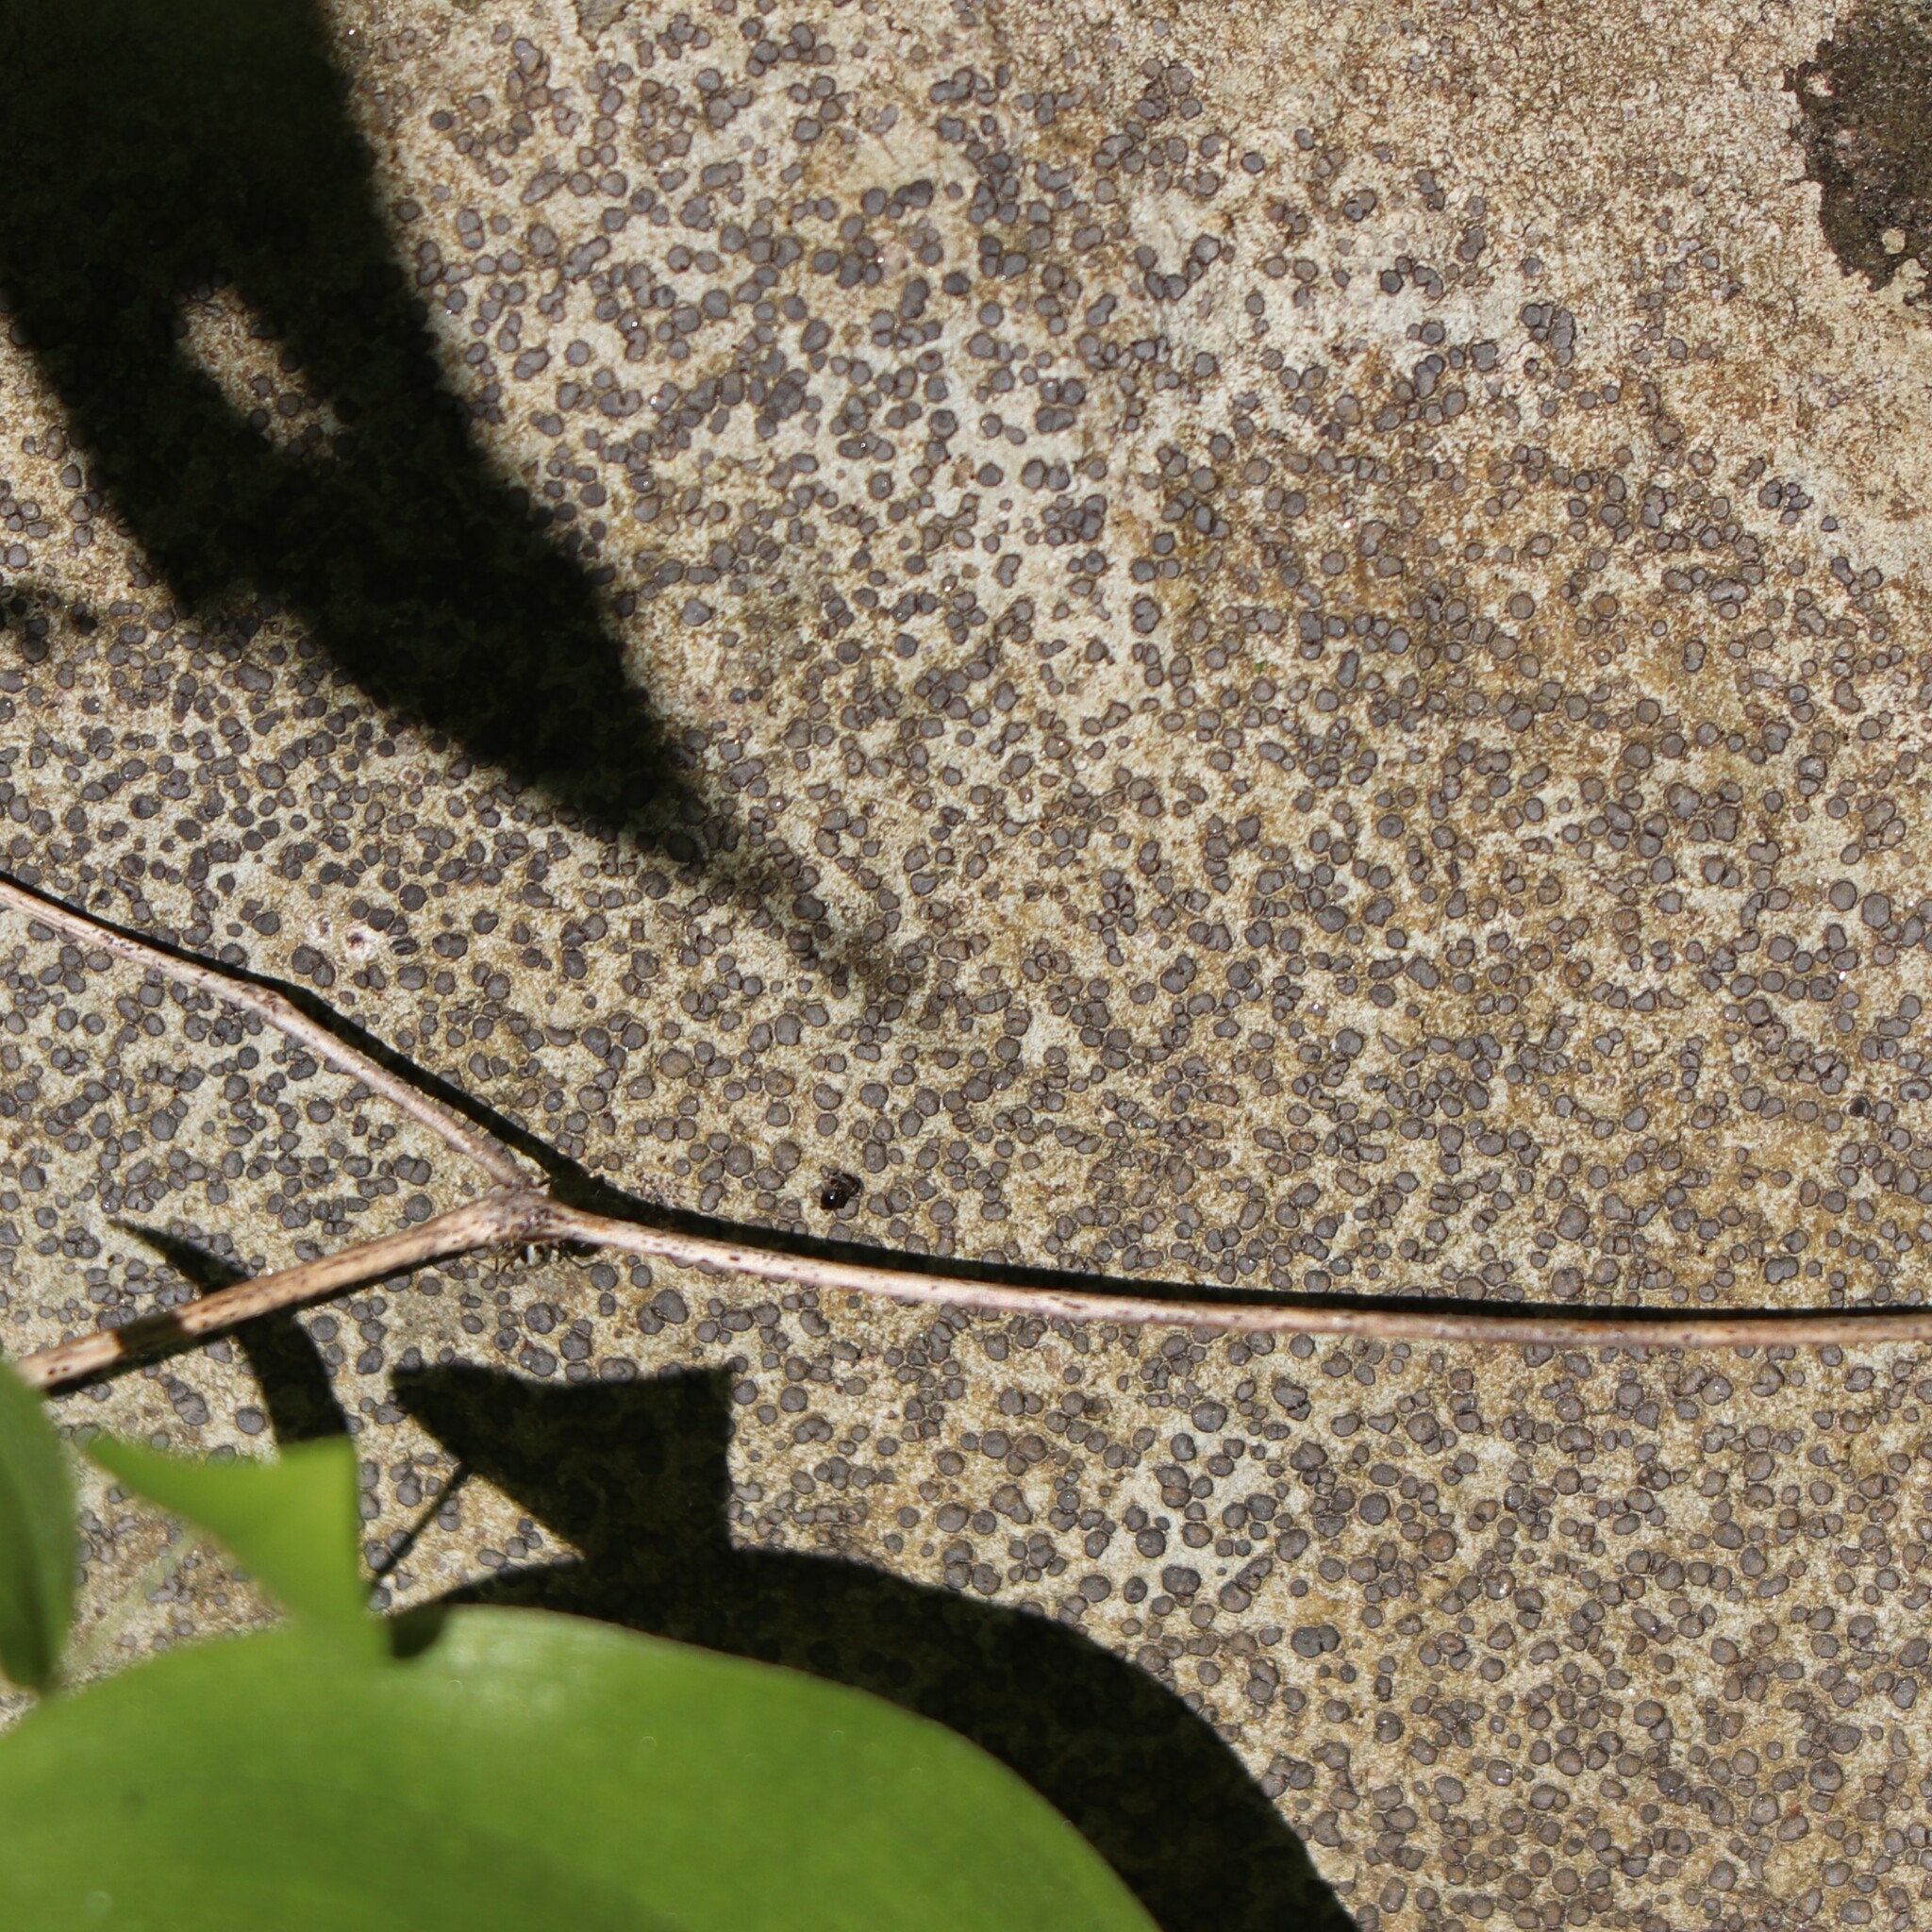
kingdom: Fungi
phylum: Ascomycota
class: Lecanoromycetes
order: Lecideales
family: Lecideaceae
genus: Porpidia
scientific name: Porpidia albocaerulescens
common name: Smokey-eyed boulder lichen
